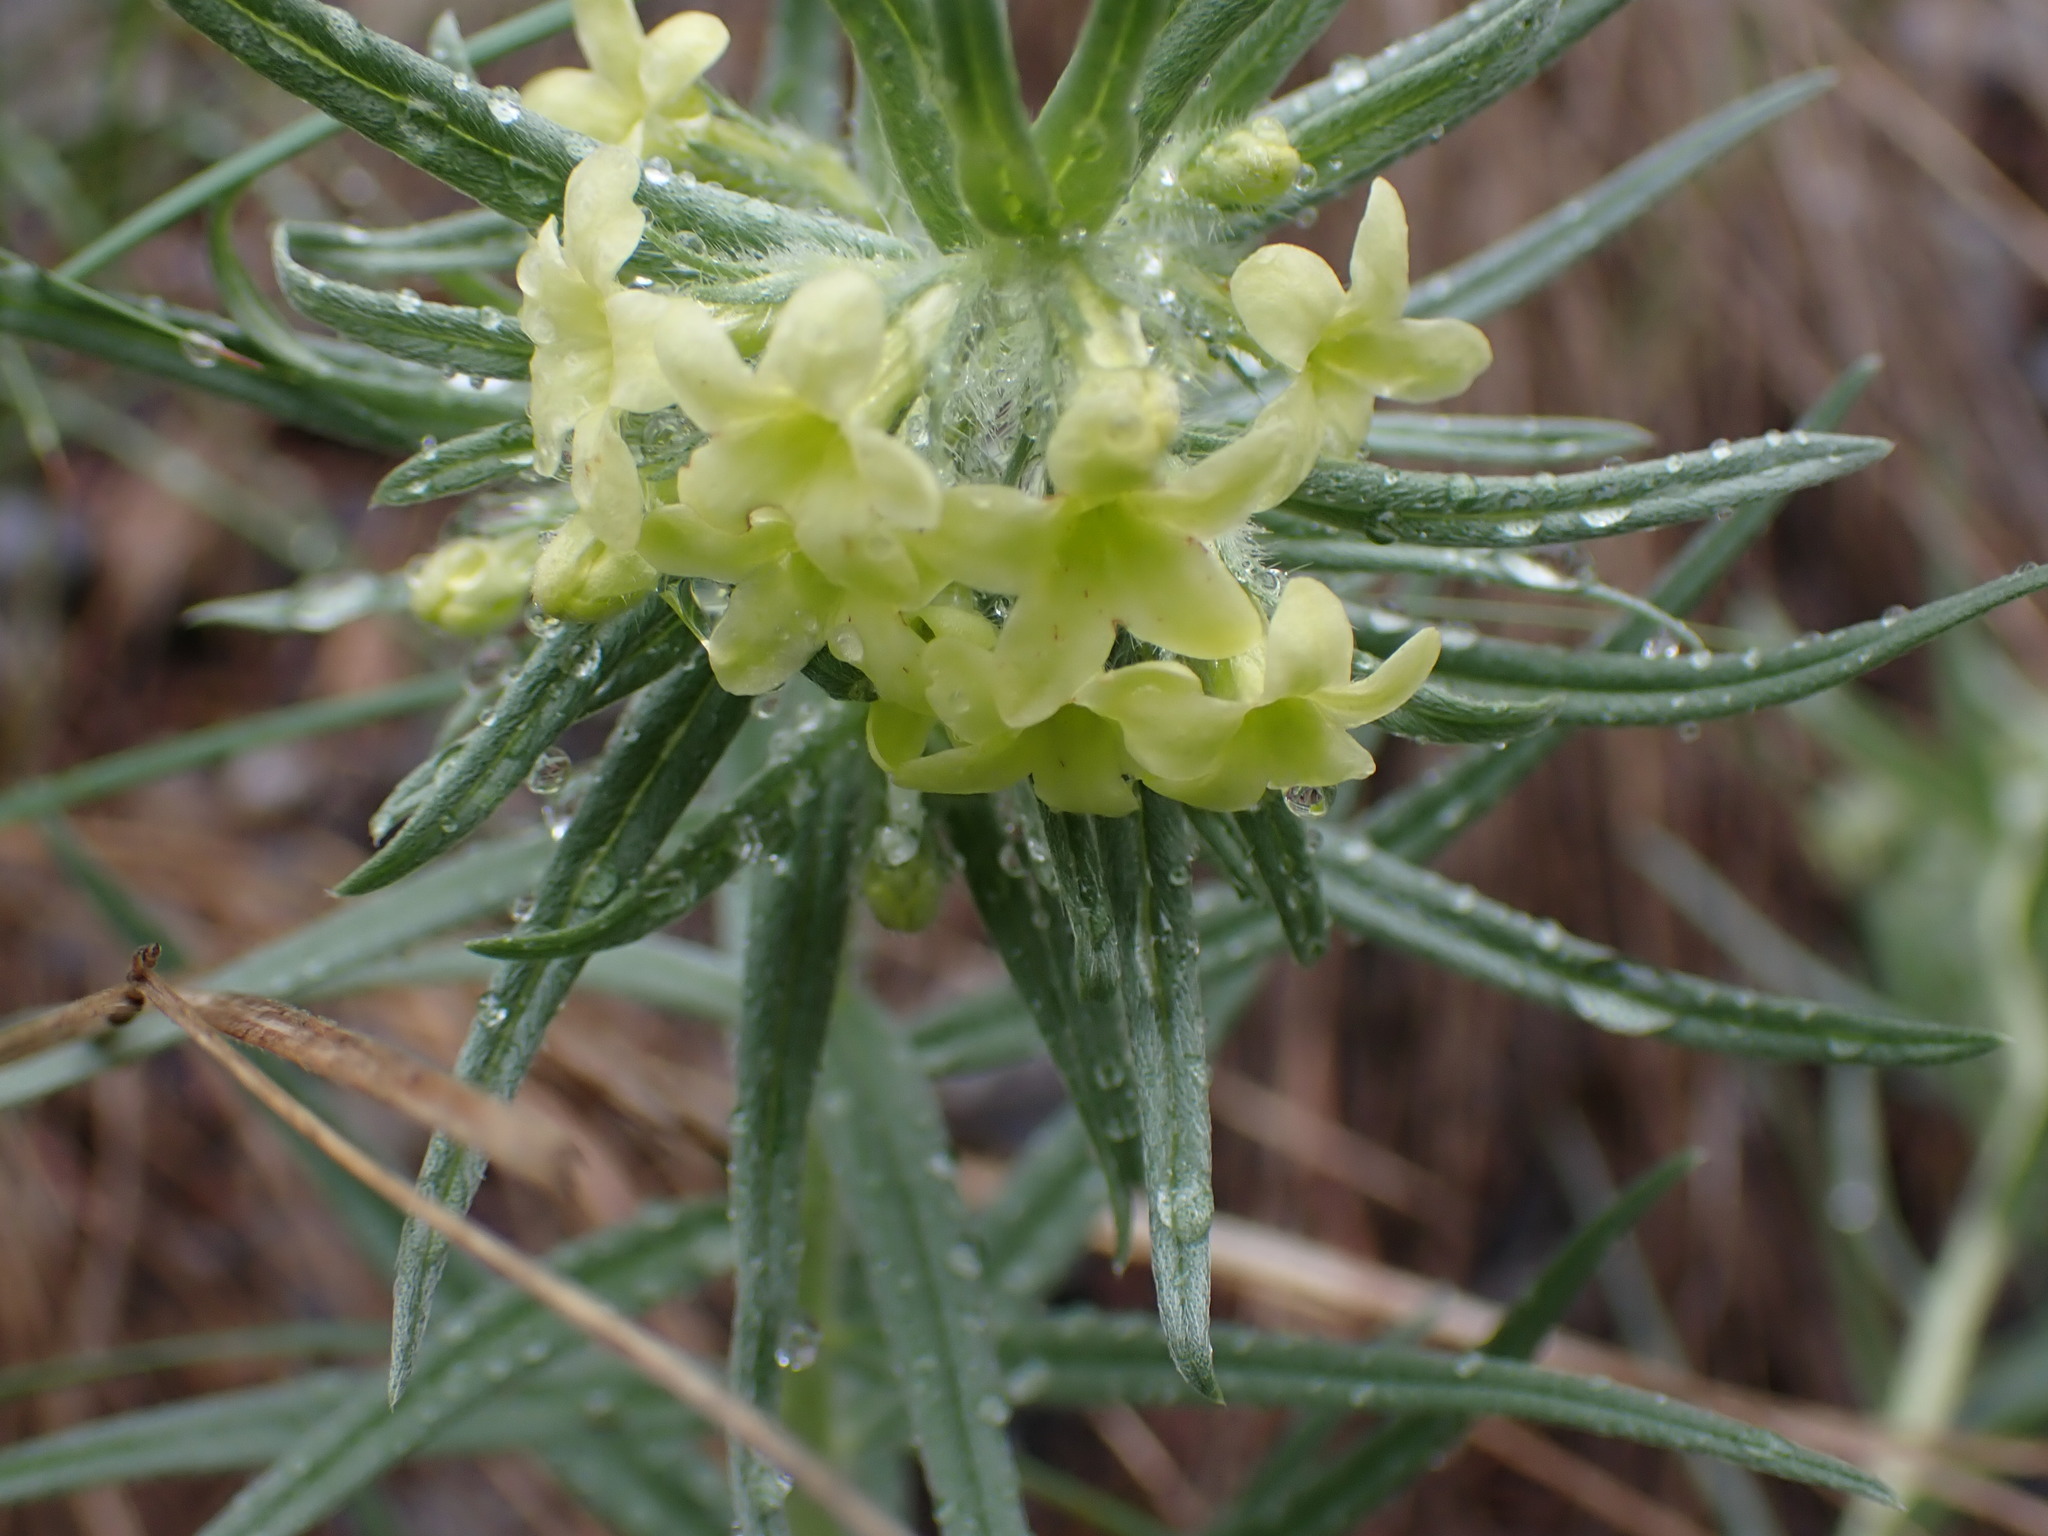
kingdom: Plantae
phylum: Tracheophyta
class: Magnoliopsida
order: Boraginales
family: Boraginaceae
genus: Lithospermum
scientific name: Lithospermum ruderale
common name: Western gromwell
